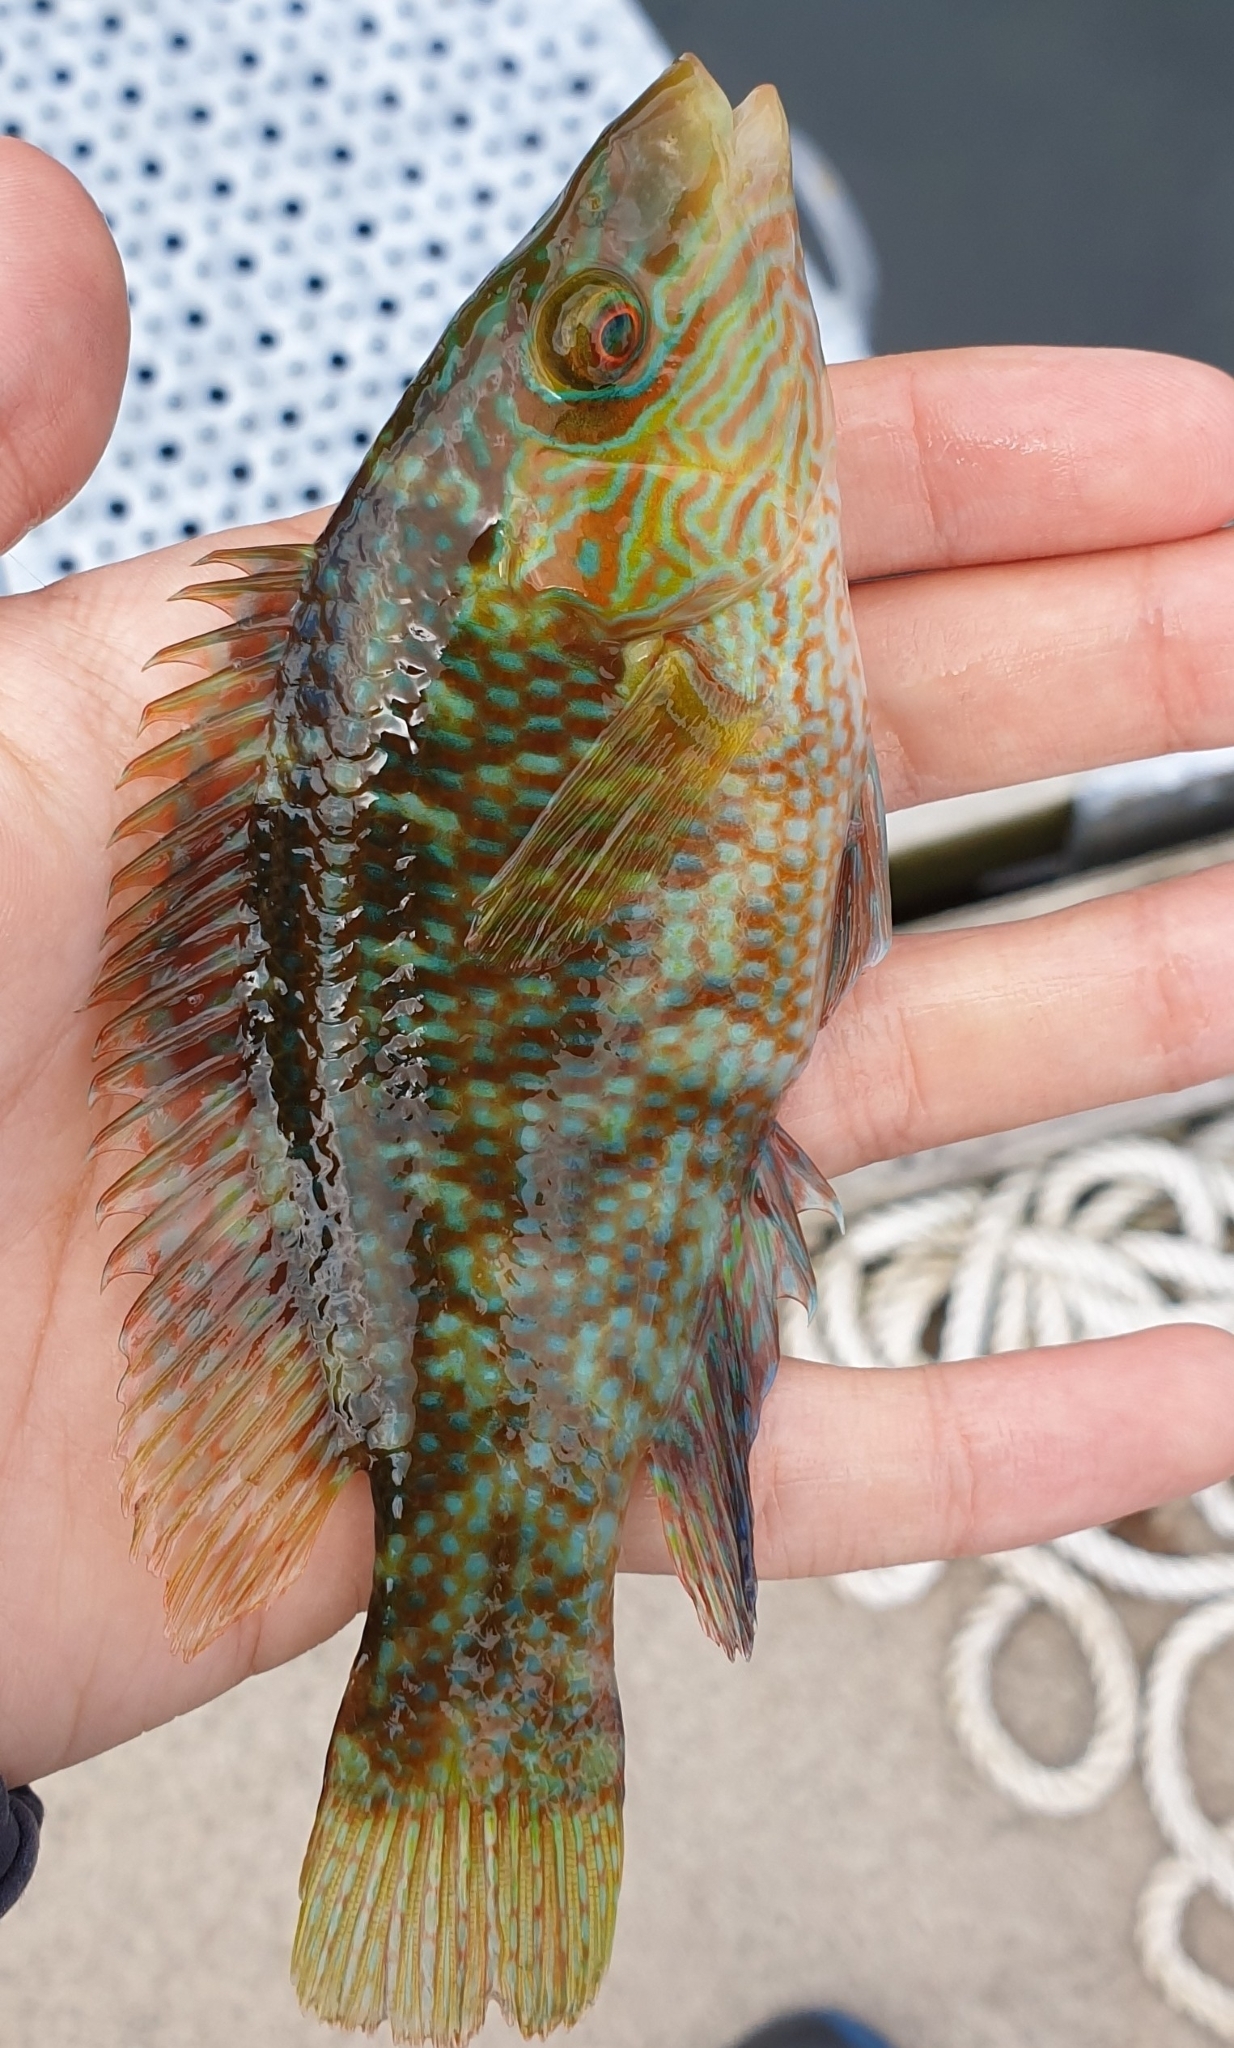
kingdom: Animalia
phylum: Chordata
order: Perciformes
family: Labridae
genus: Symphodus
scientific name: Symphodus melops
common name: Corkwing
